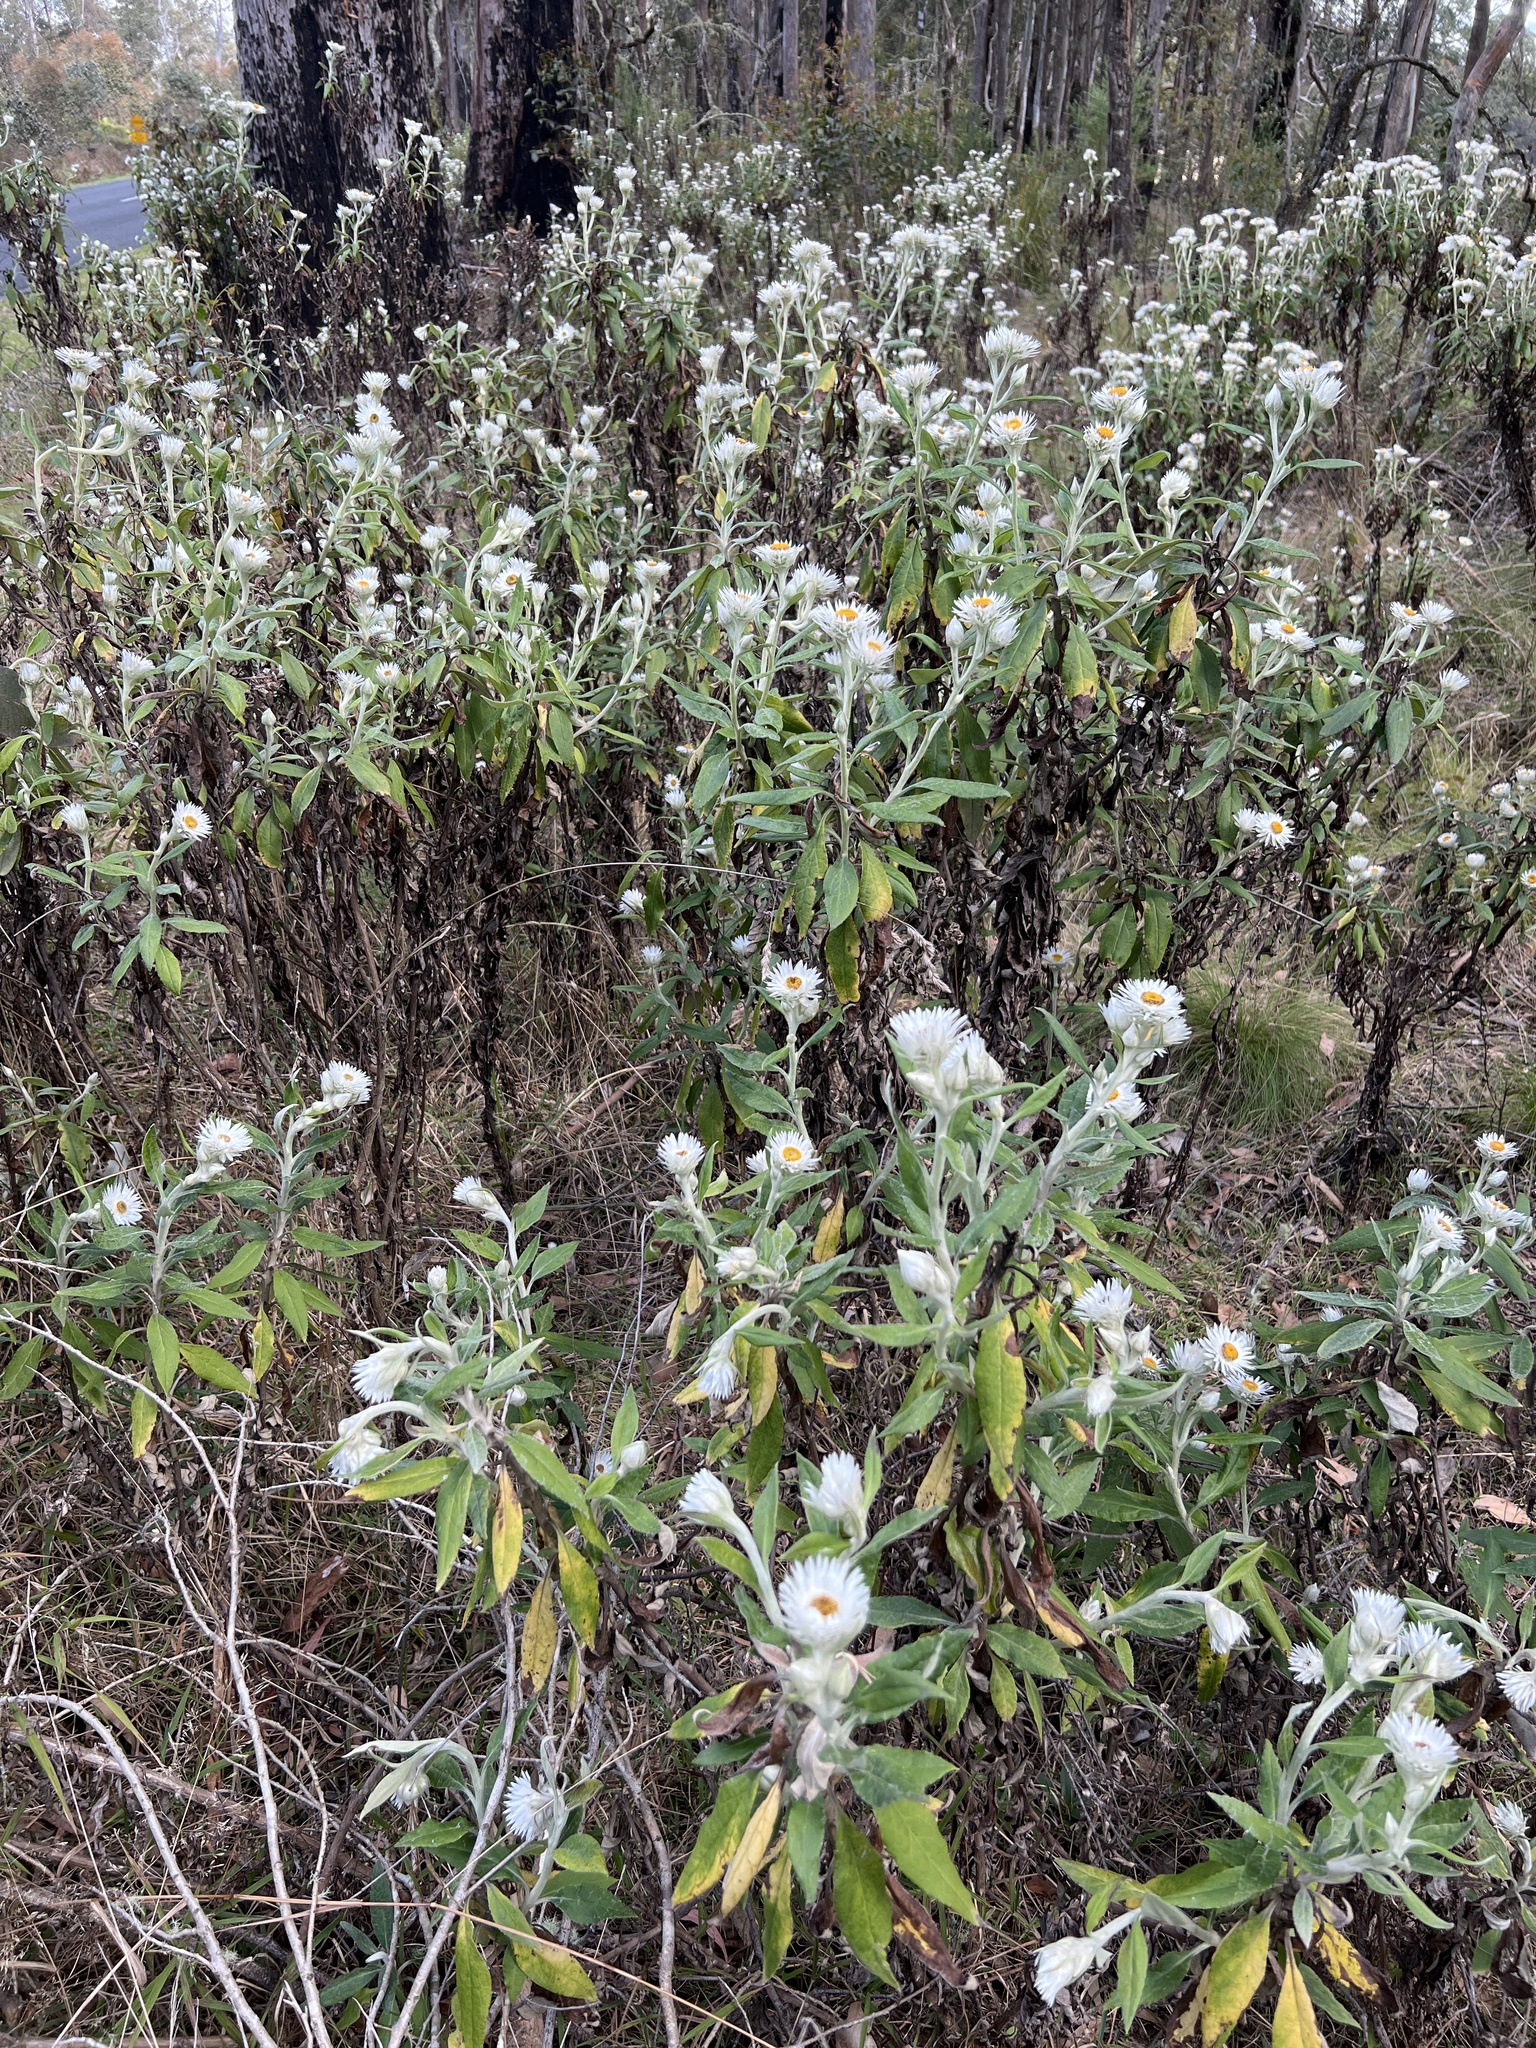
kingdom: Plantae
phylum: Tracheophyta
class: Magnoliopsida
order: Asterales
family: Asteraceae
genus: Leucozoma
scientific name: Leucozoma elatum
